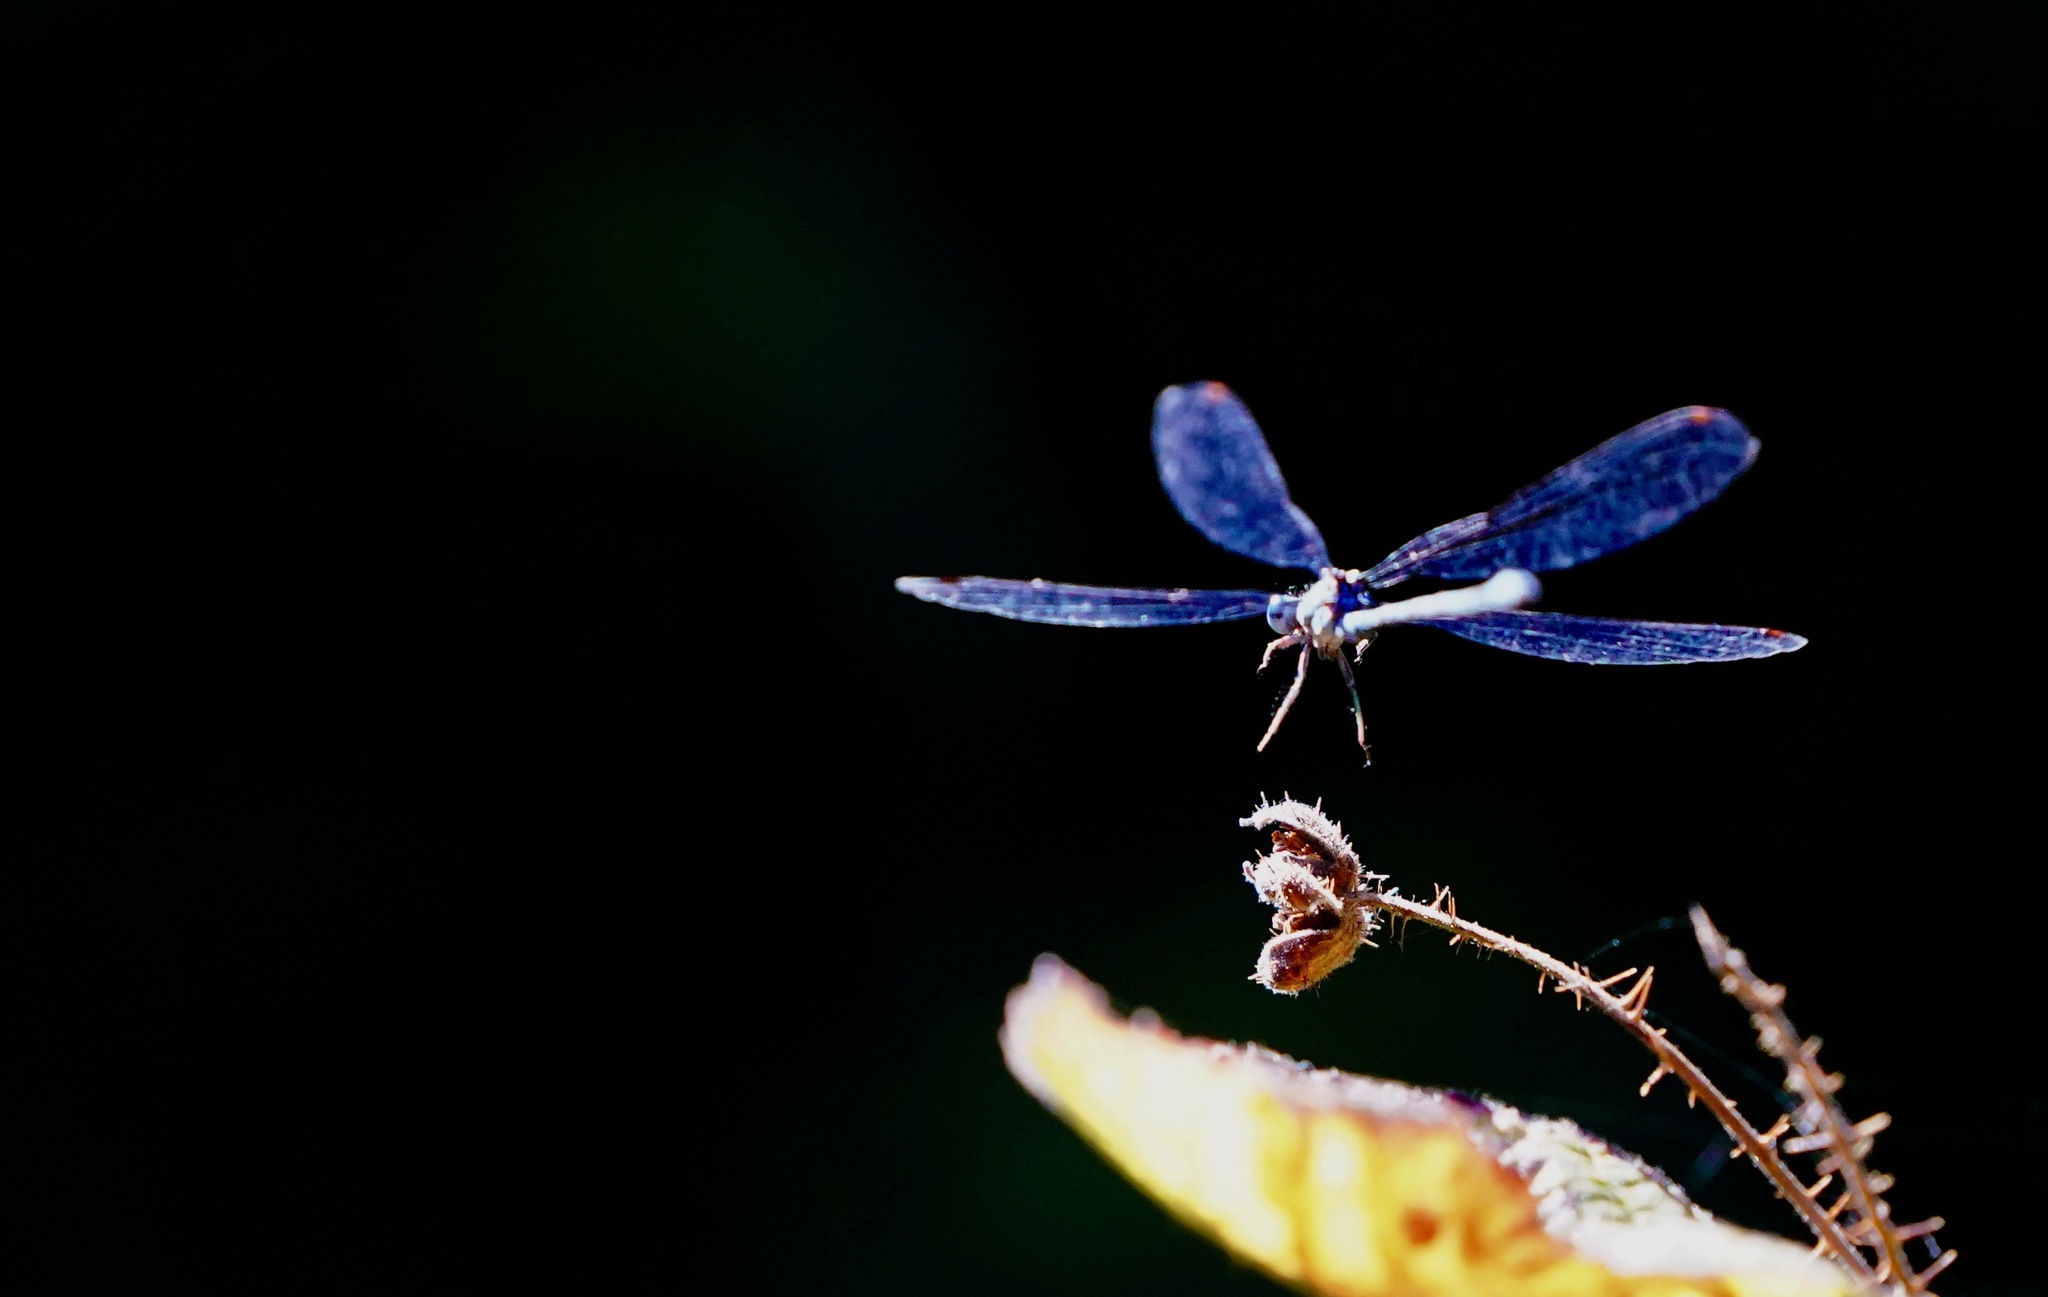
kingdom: Animalia
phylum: Arthropoda
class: Insecta
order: Odonata
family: Coenagrionidae
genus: Argia
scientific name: Argia vivida
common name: Vivid dancer
